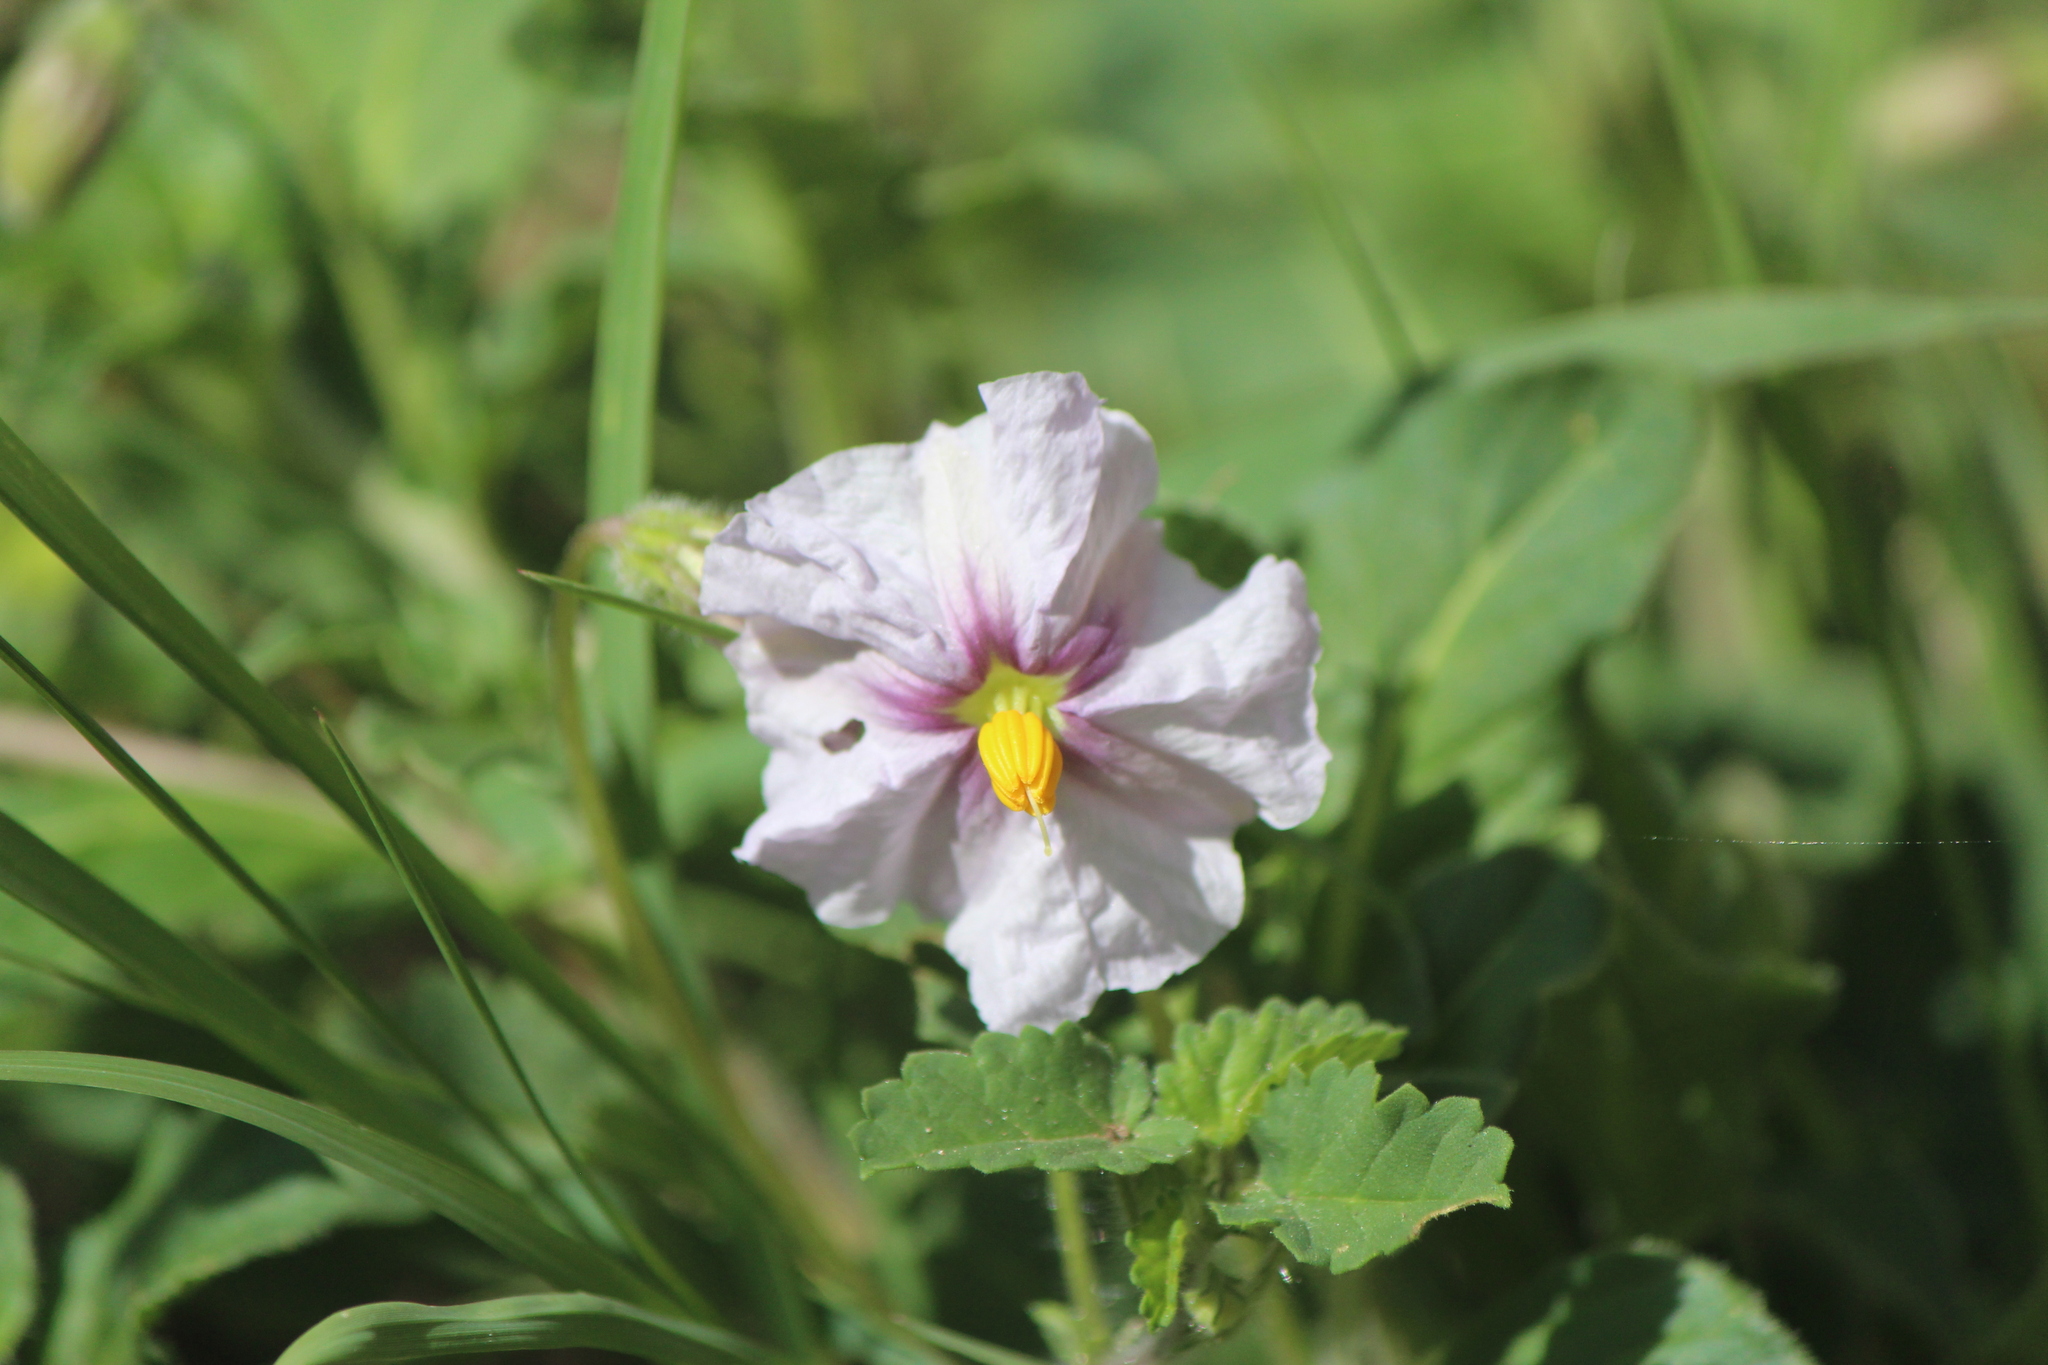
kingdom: Plantae
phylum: Tracheophyta
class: Magnoliopsida
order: Solanales
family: Solanaceae
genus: Lycianthes
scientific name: Lycianthes peduncularis
